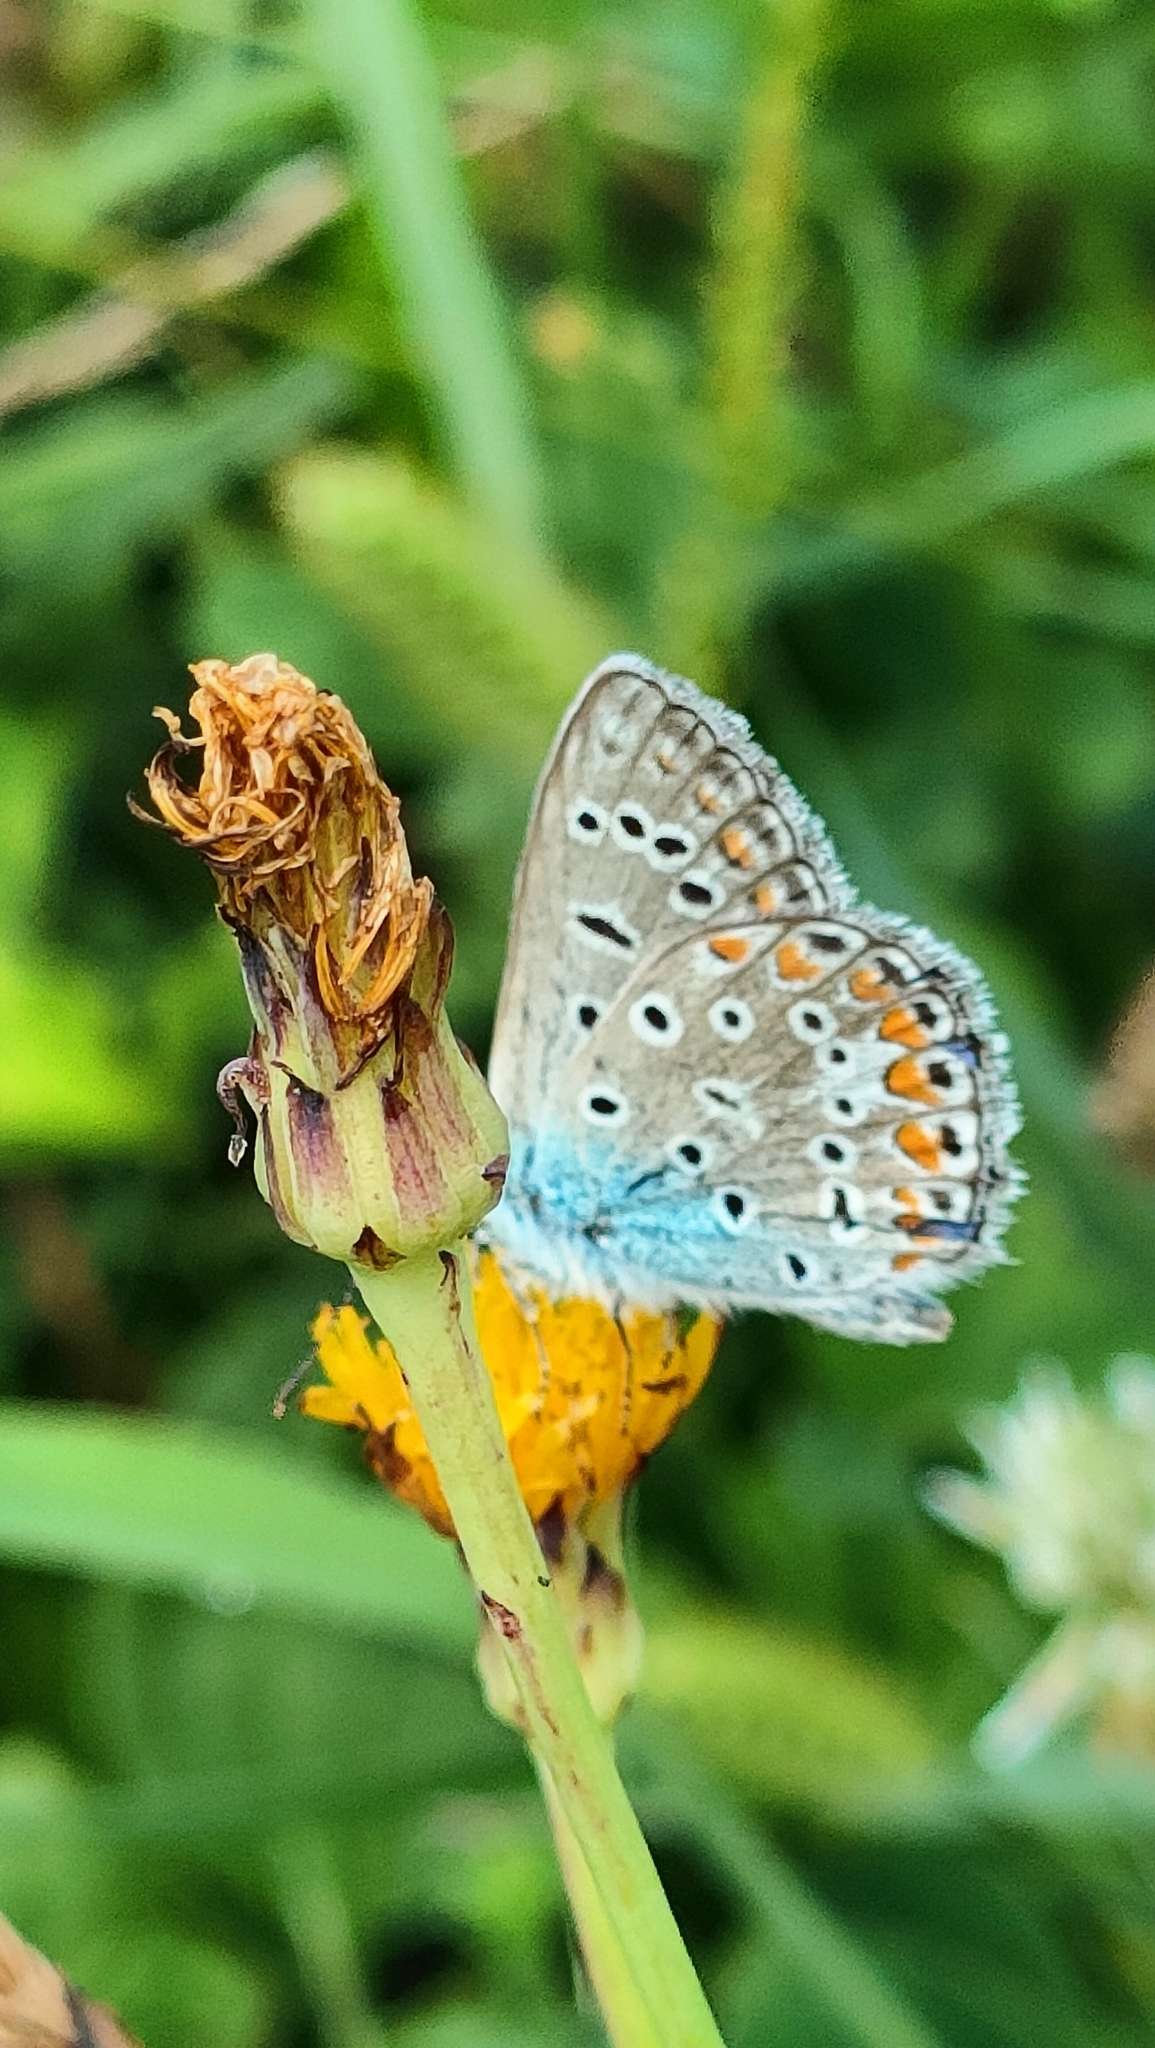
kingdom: Animalia
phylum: Arthropoda
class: Insecta
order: Lepidoptera
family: Lycaenidae
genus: Polyommatus
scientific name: Polyommatus icarus
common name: Common blue
